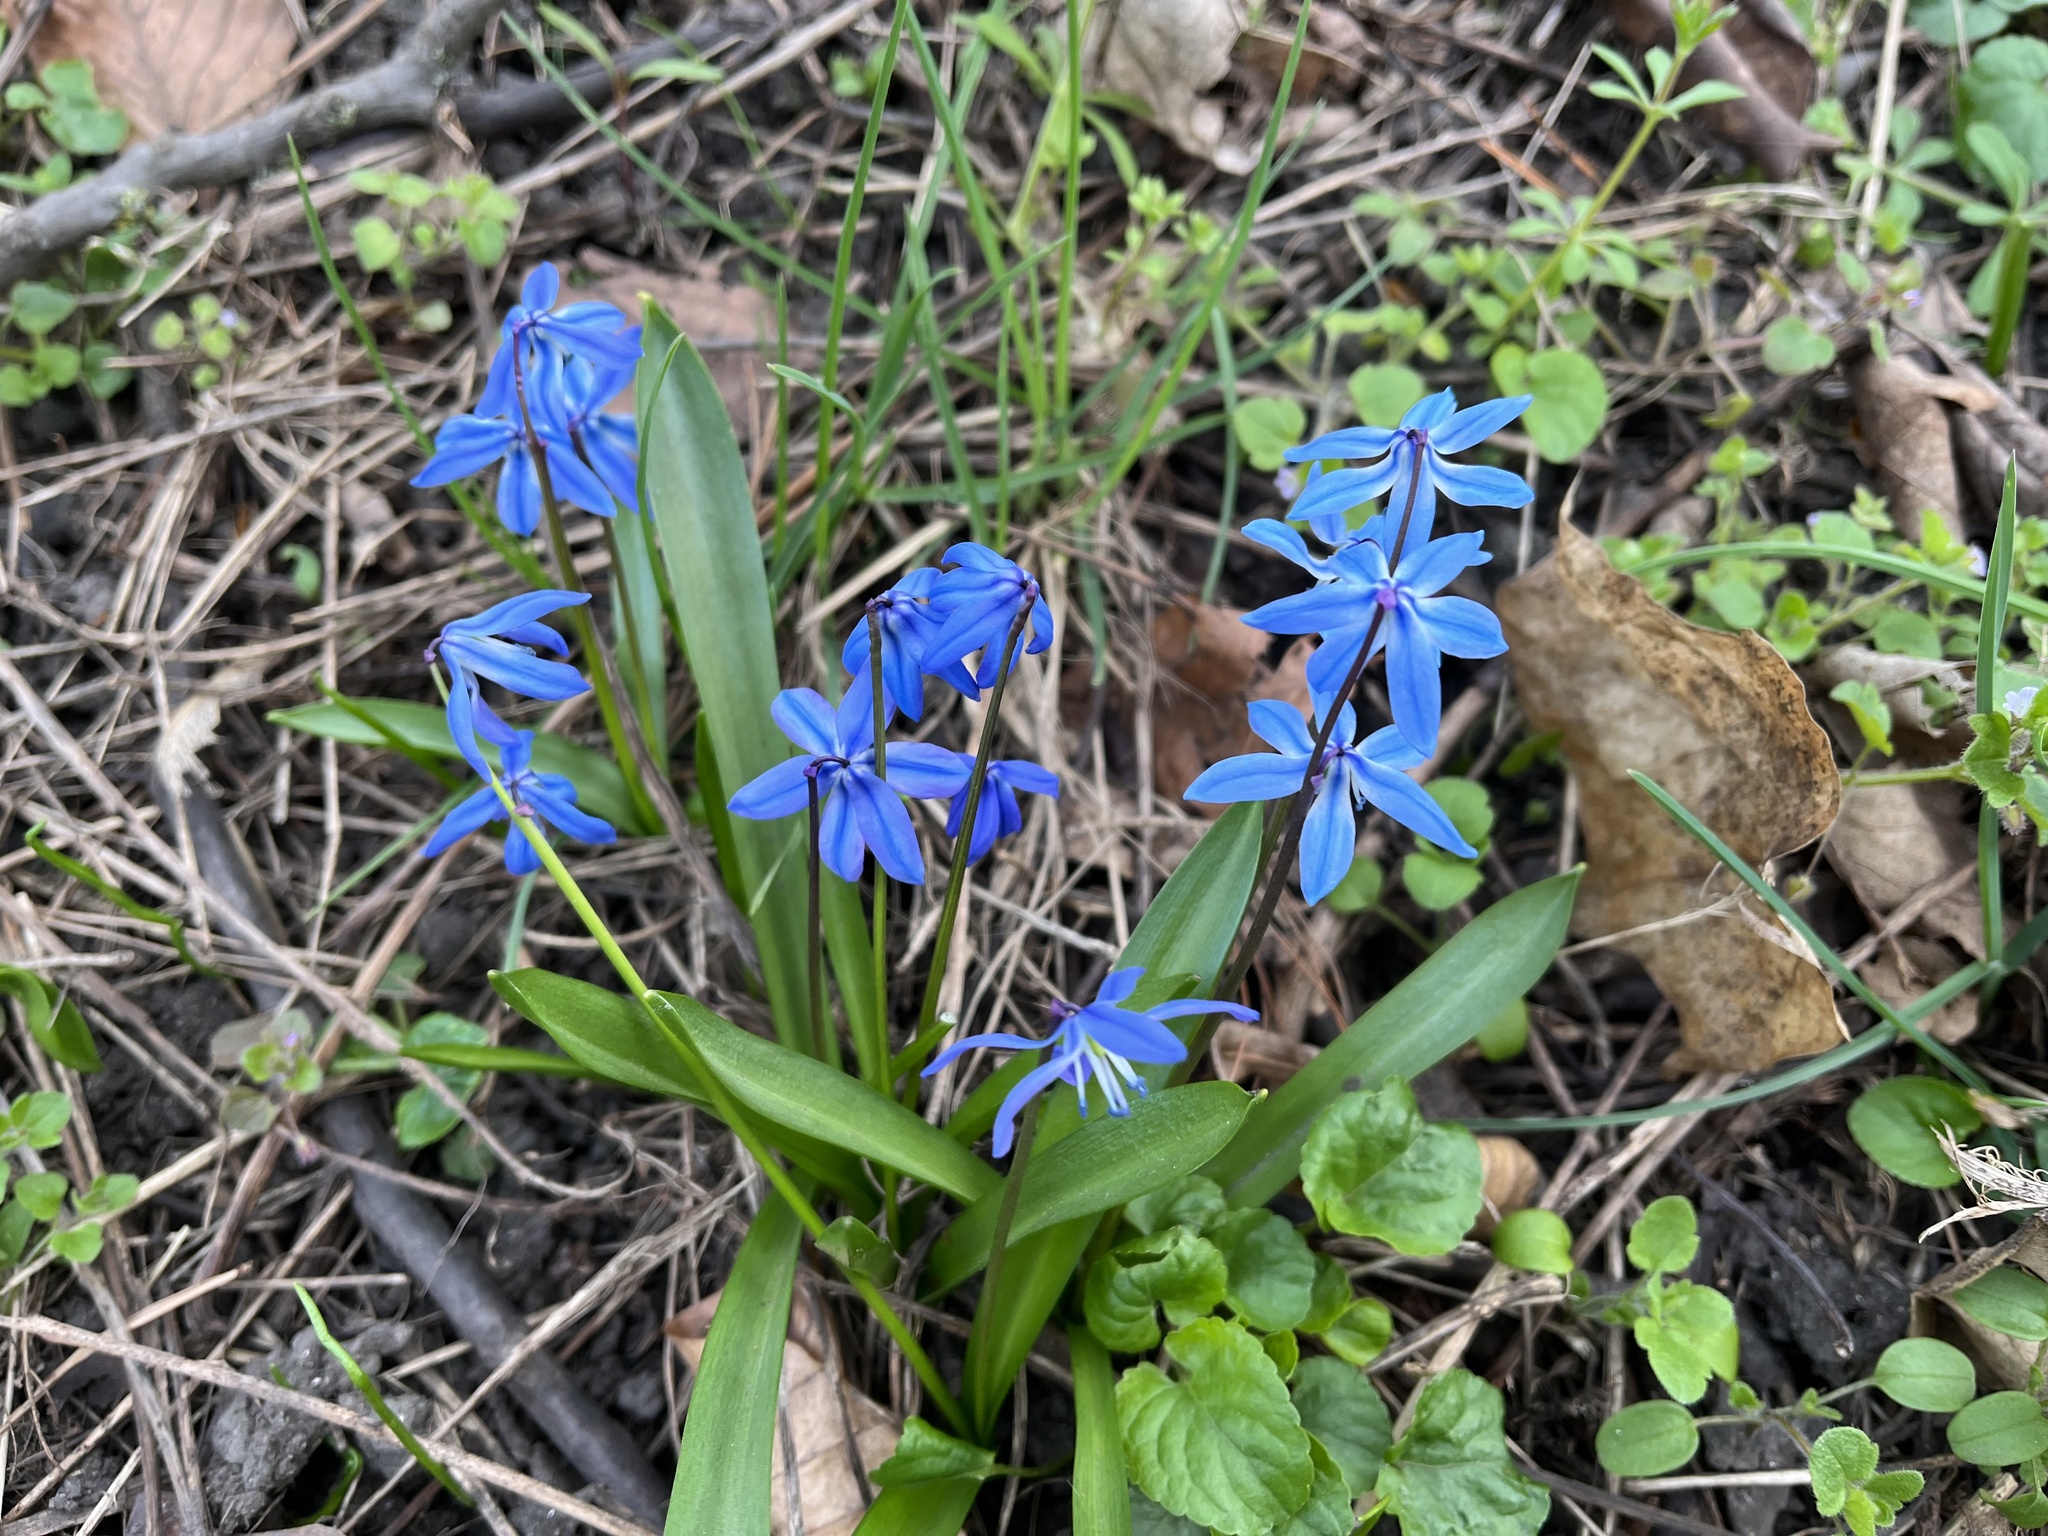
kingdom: Plantae
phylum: Tracheophyta
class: Liliopsida
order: Asparagales
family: Asparagaceae
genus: Scilla
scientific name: Scilla siberica
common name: Siberian squill
